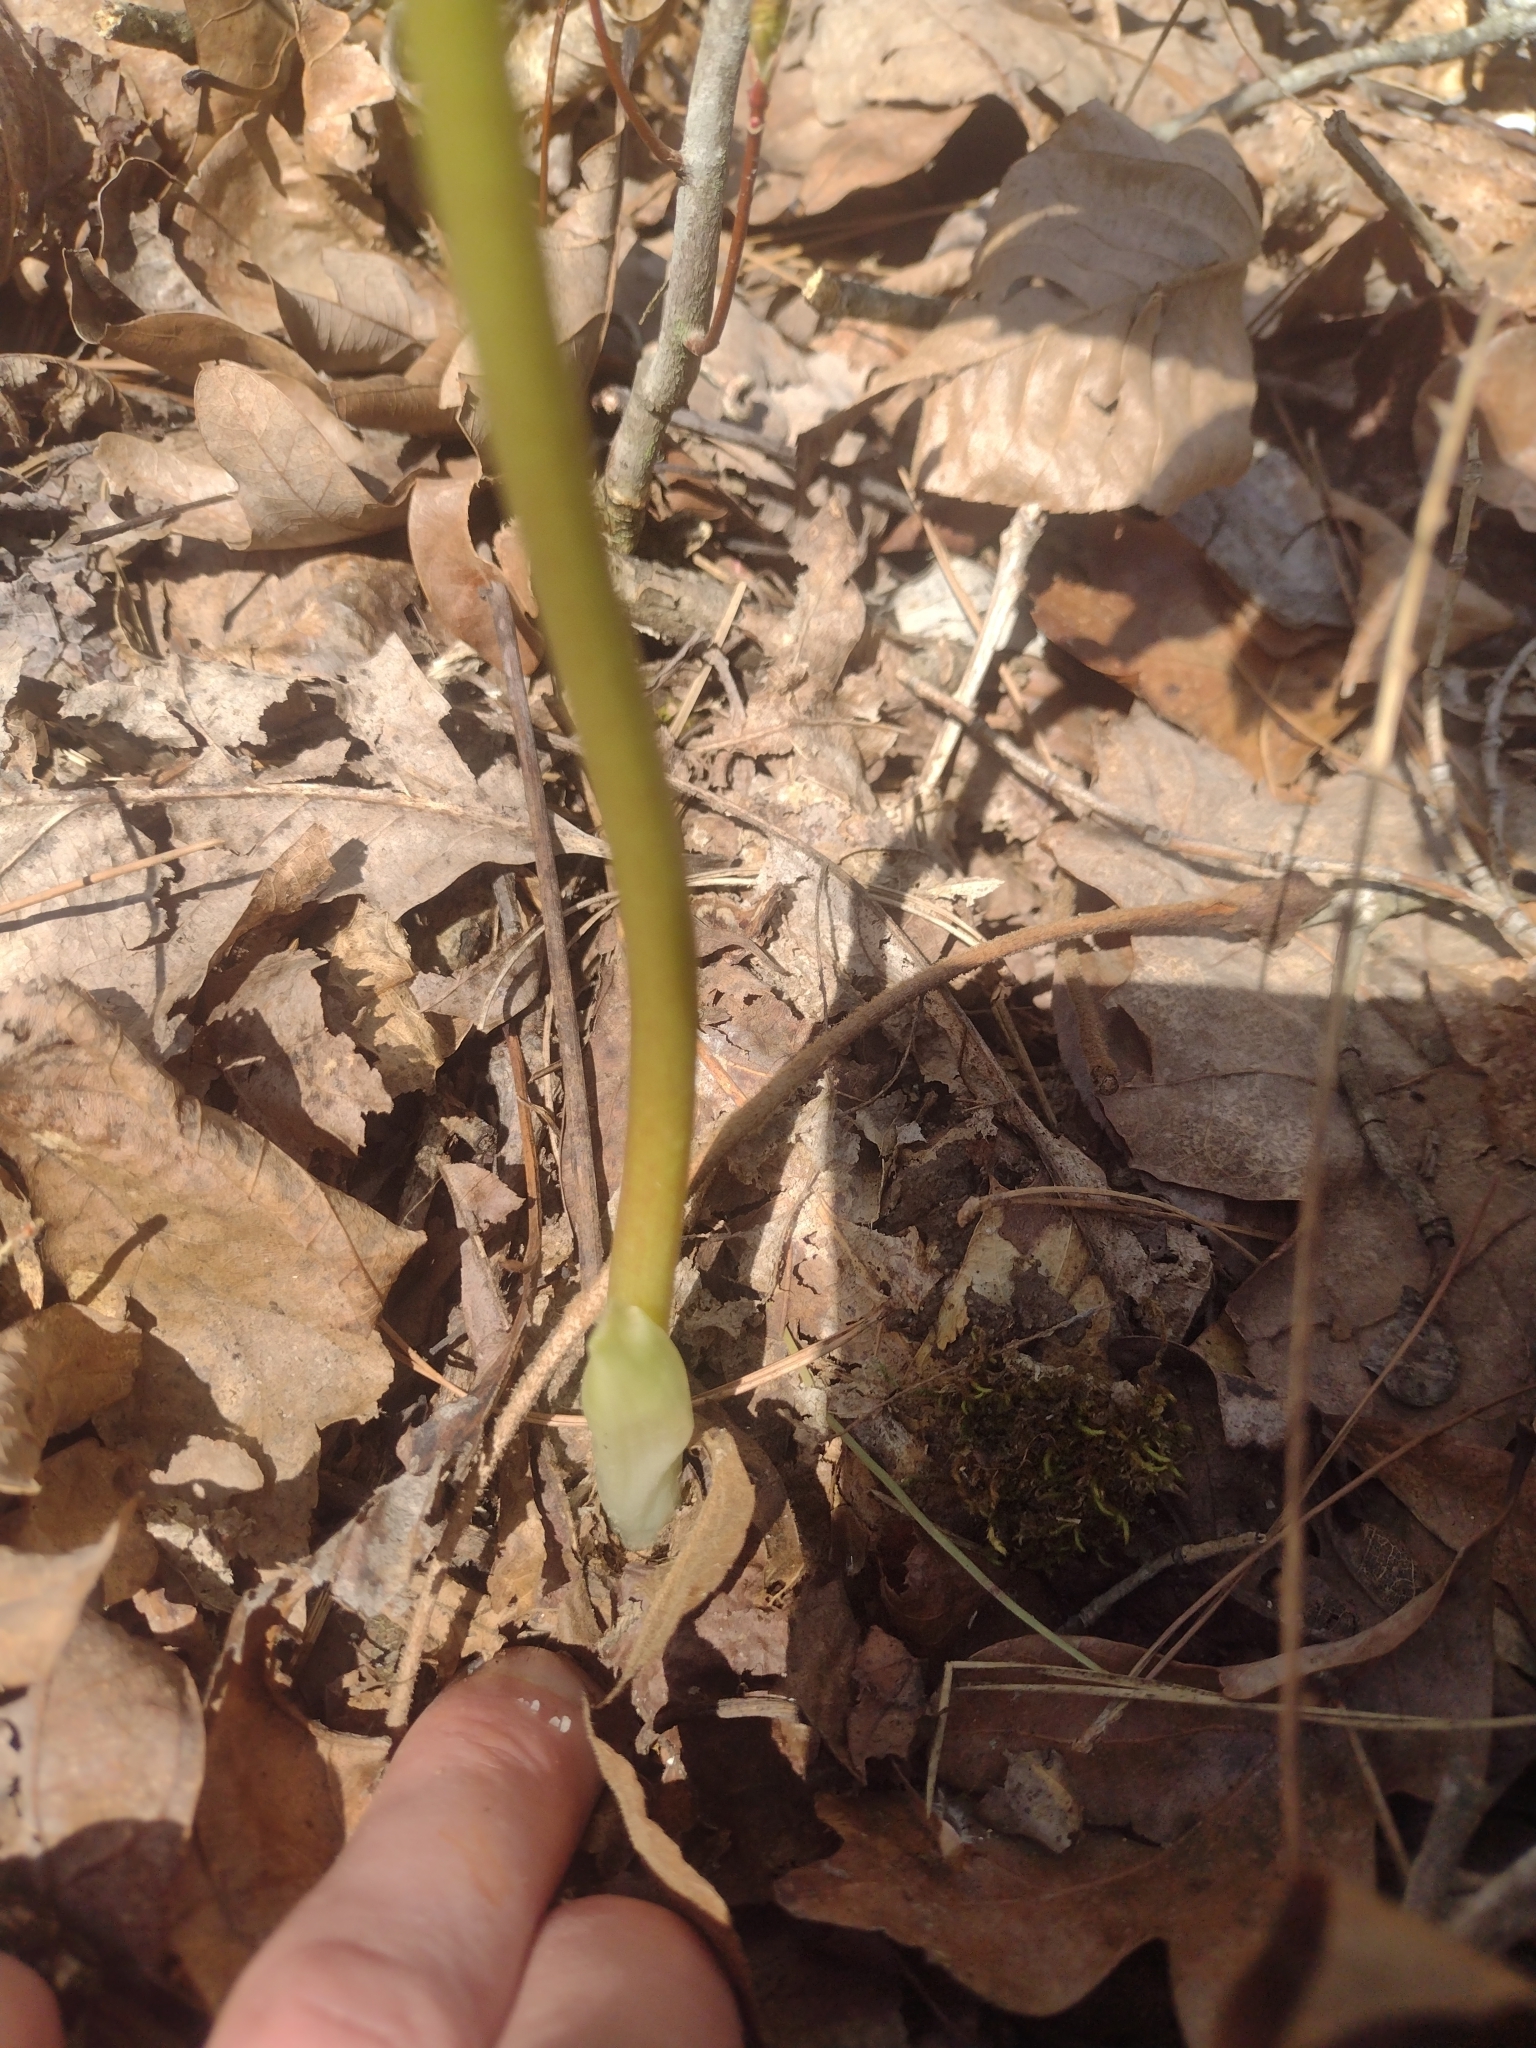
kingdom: Plantae
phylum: Tracheophyta
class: Magnoliopsida
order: Ranunculales
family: Berberidaceae
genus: Podophyllum
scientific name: Podophyllum peltatum
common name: Wild mandrake
